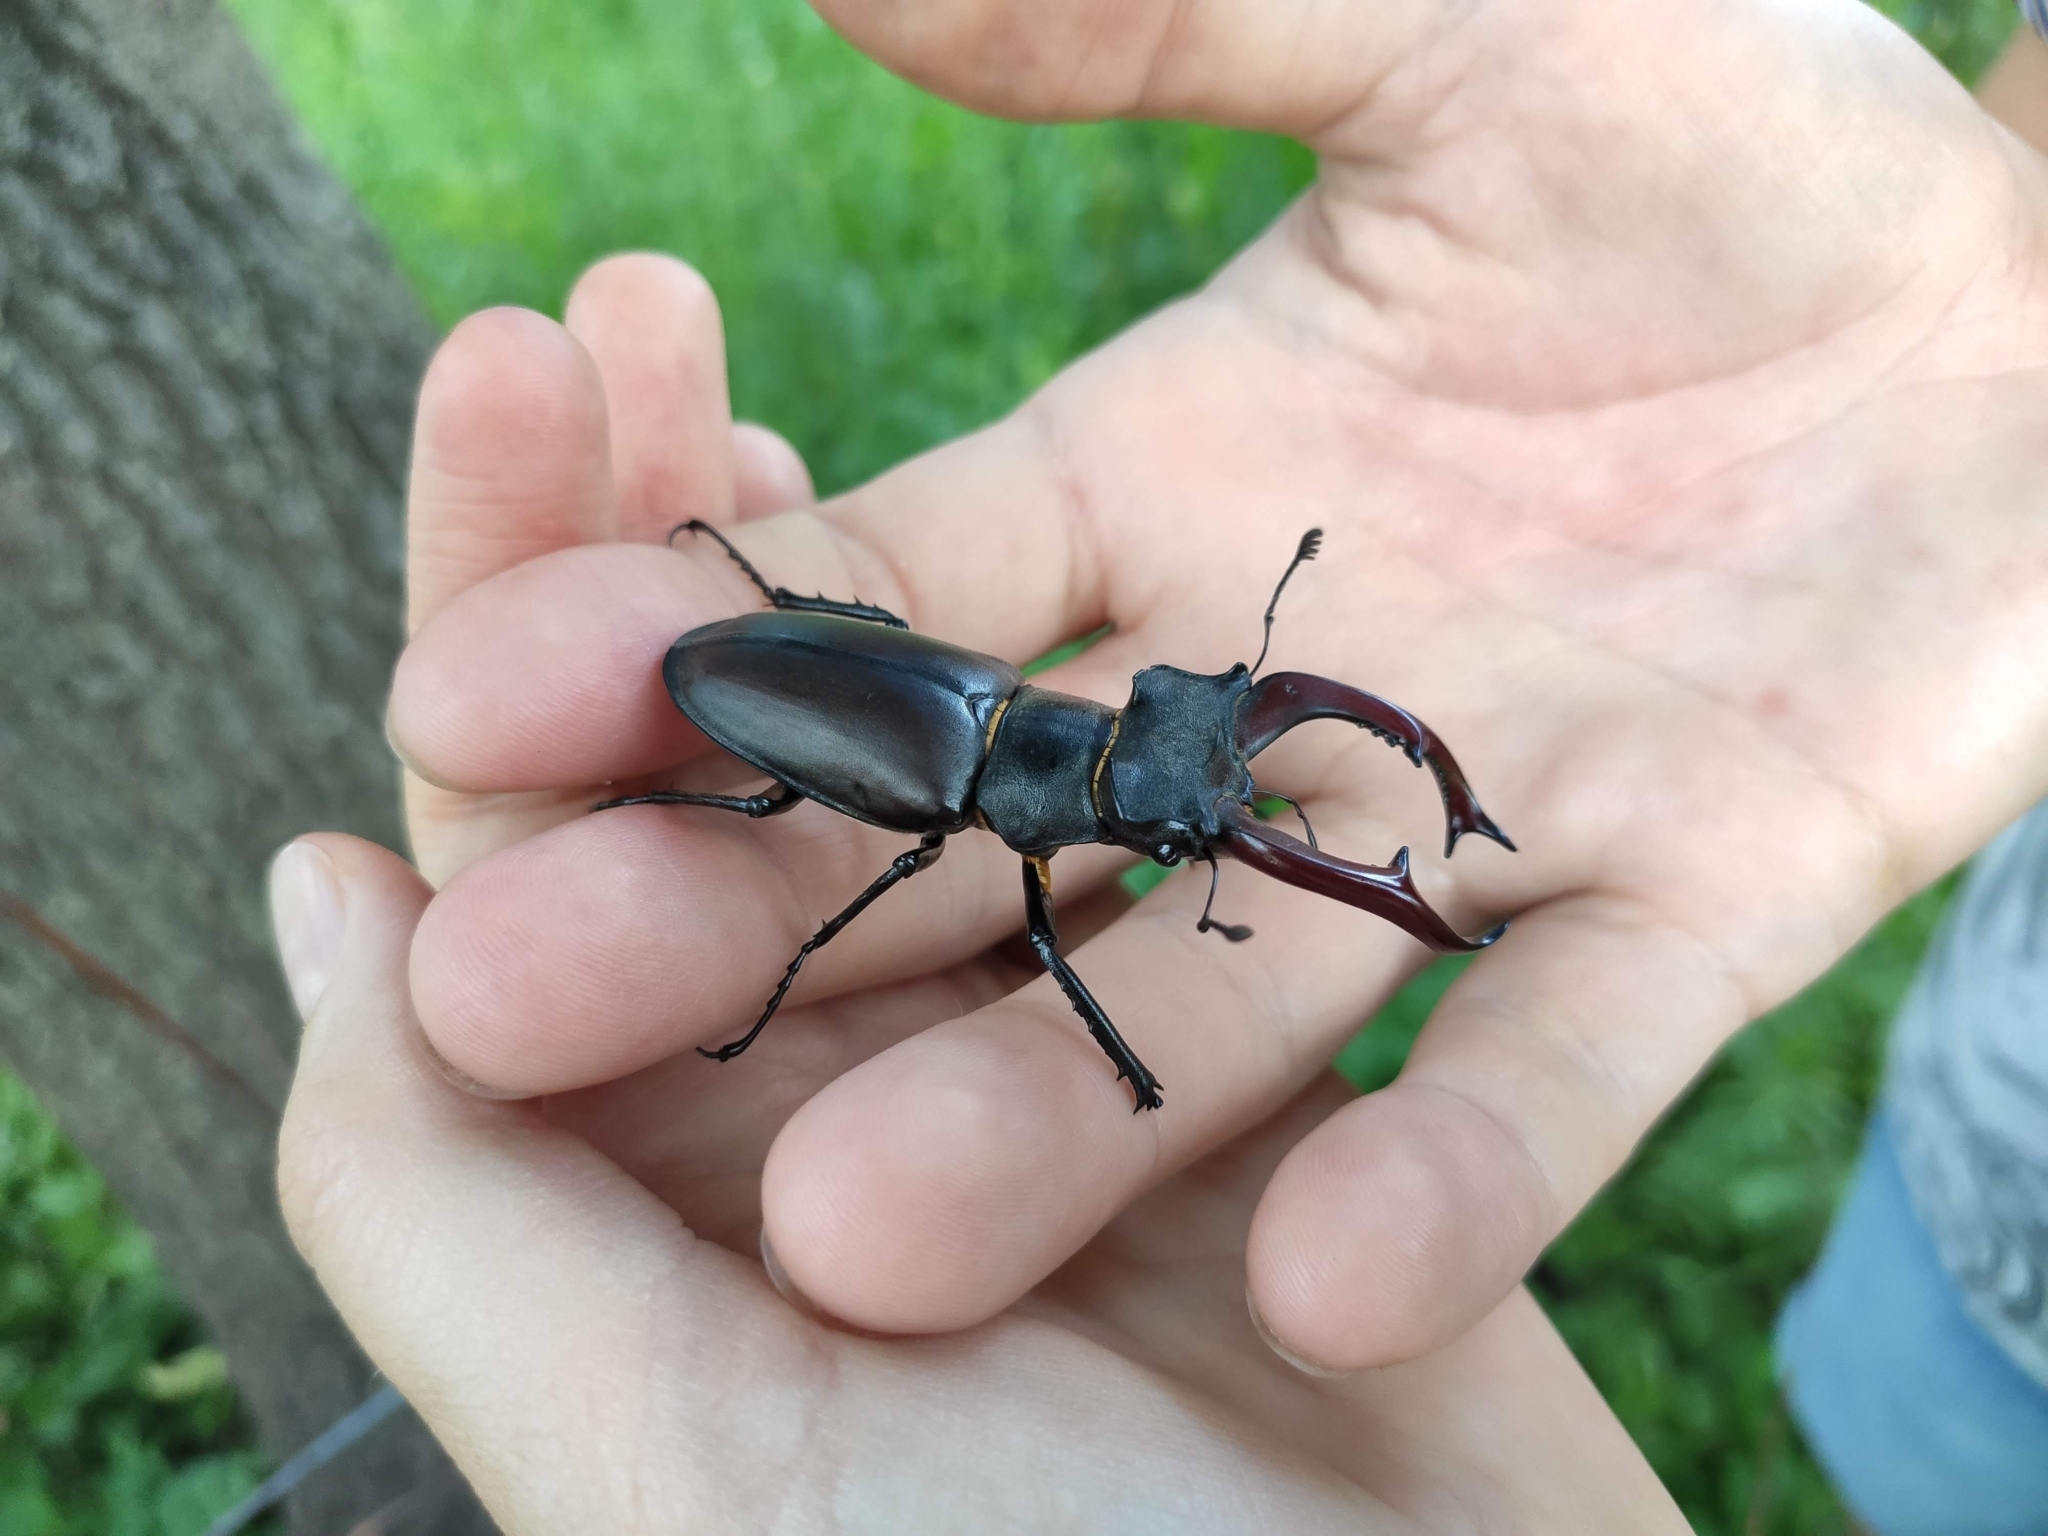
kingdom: Animalia
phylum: Arthropoda
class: Insecta
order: Coleoptera
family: Lucanidae
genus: Lucanus
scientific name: Lucanus cervus
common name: Stag beetle
